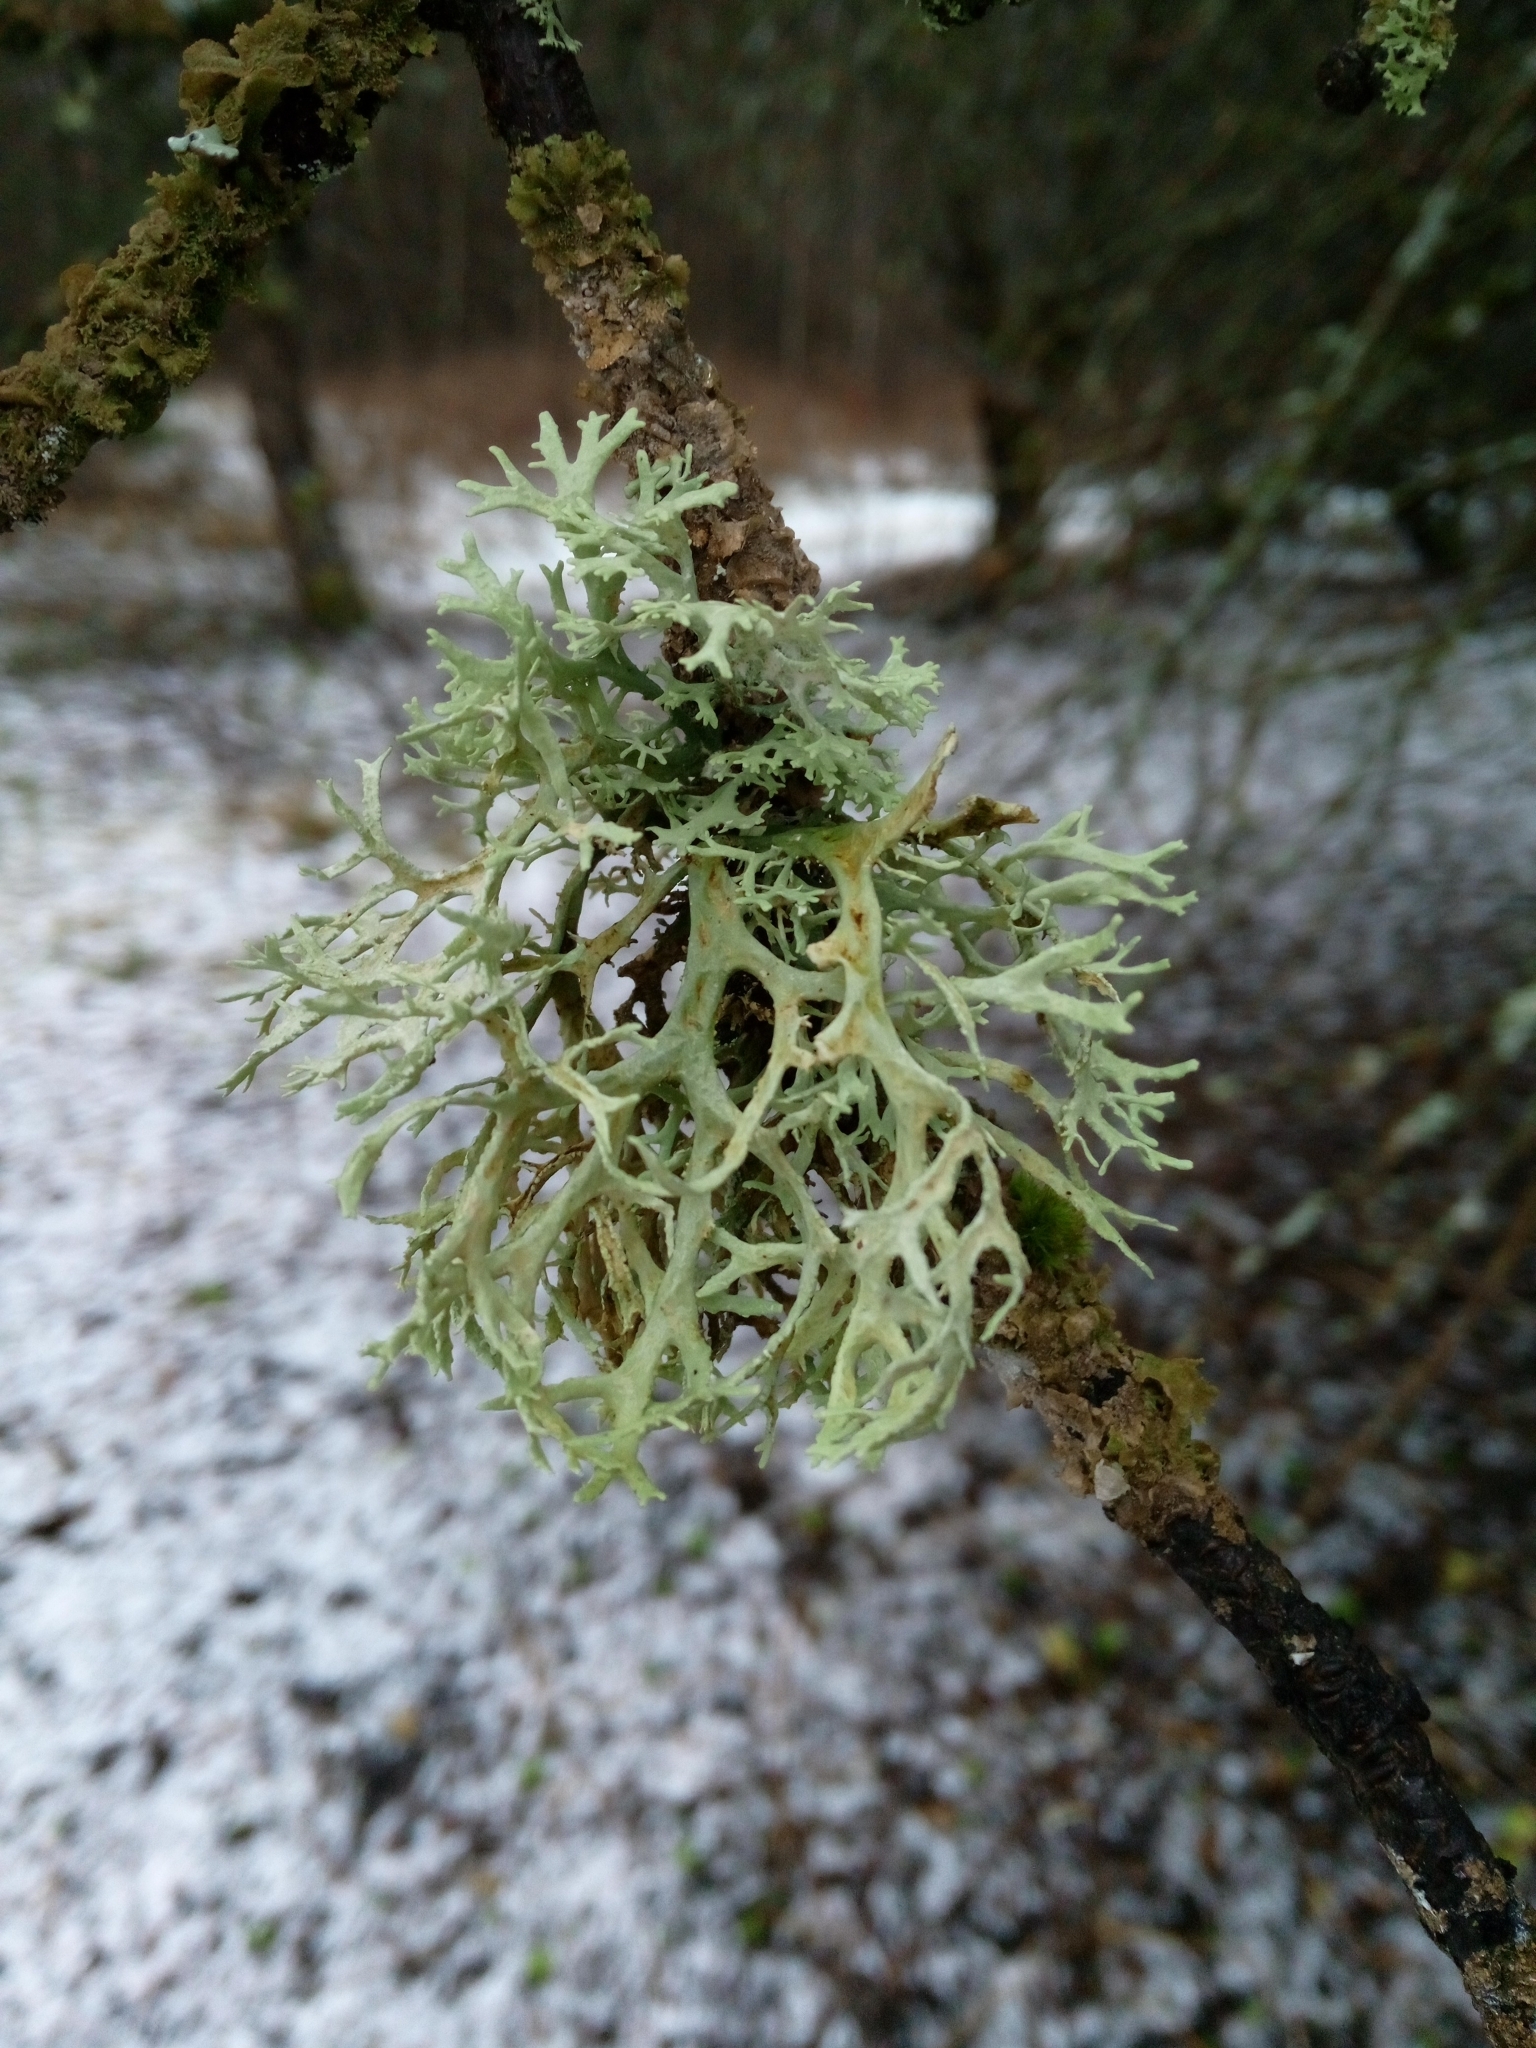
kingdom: Fungi
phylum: Ascomycota
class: Lecanoromycetes
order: Lecanorales
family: Parmeliaceae
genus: Evernia
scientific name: Evernia prunastri
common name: Oak moss
